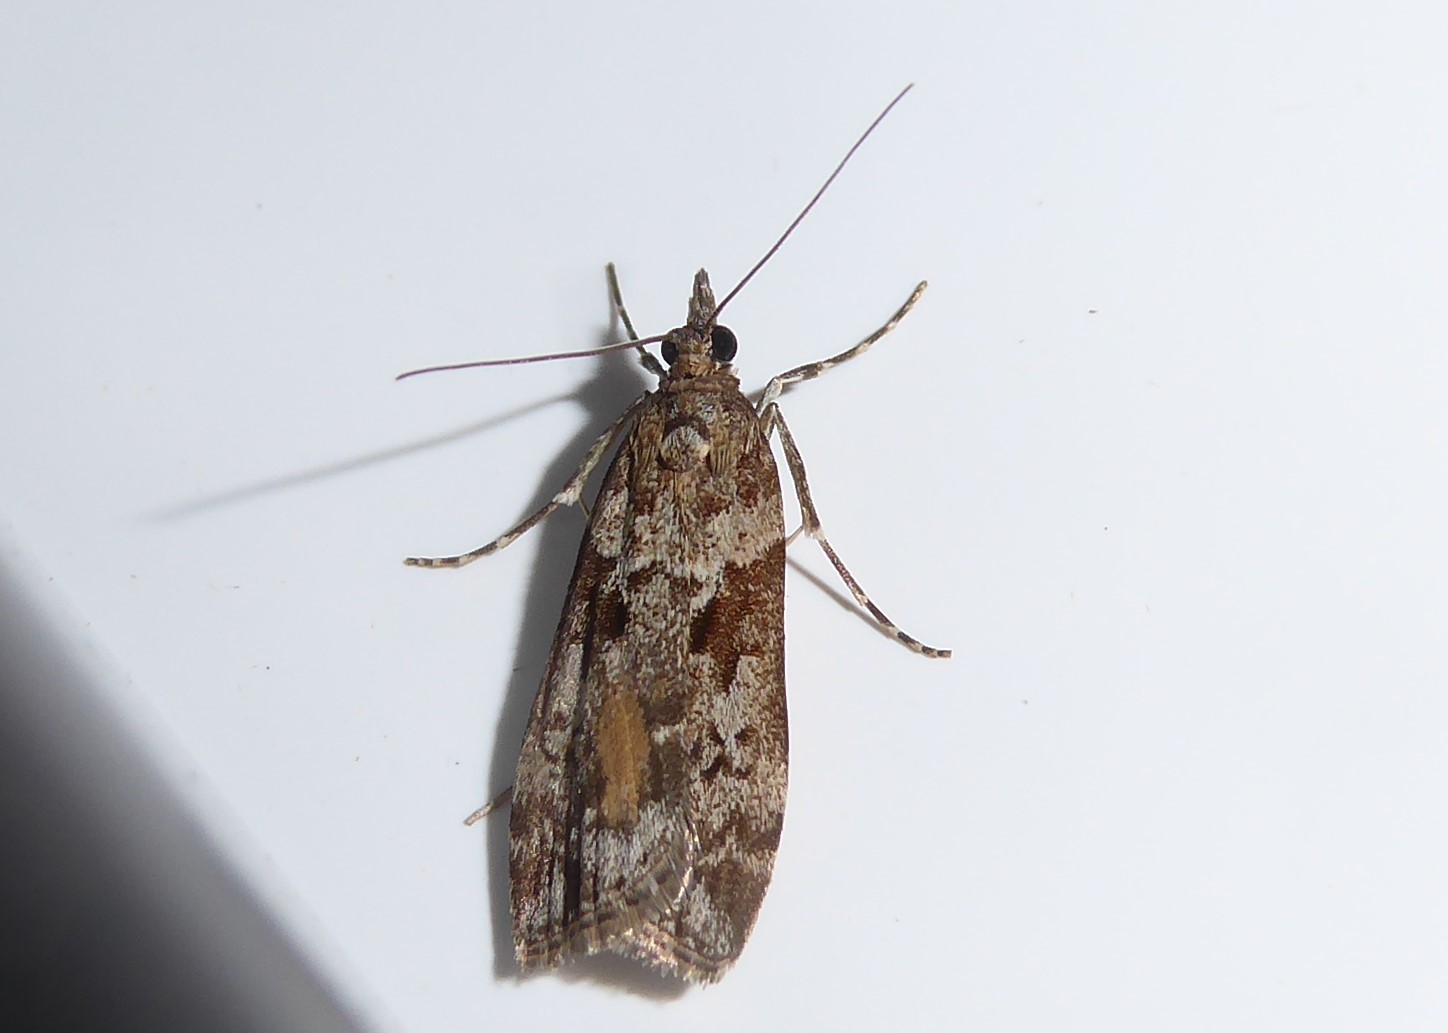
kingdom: Animalia
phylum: Arthropoda
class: Insecta
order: Lepidoptera
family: Crambidae
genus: Eudonia
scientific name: Eudonia submarginalis
